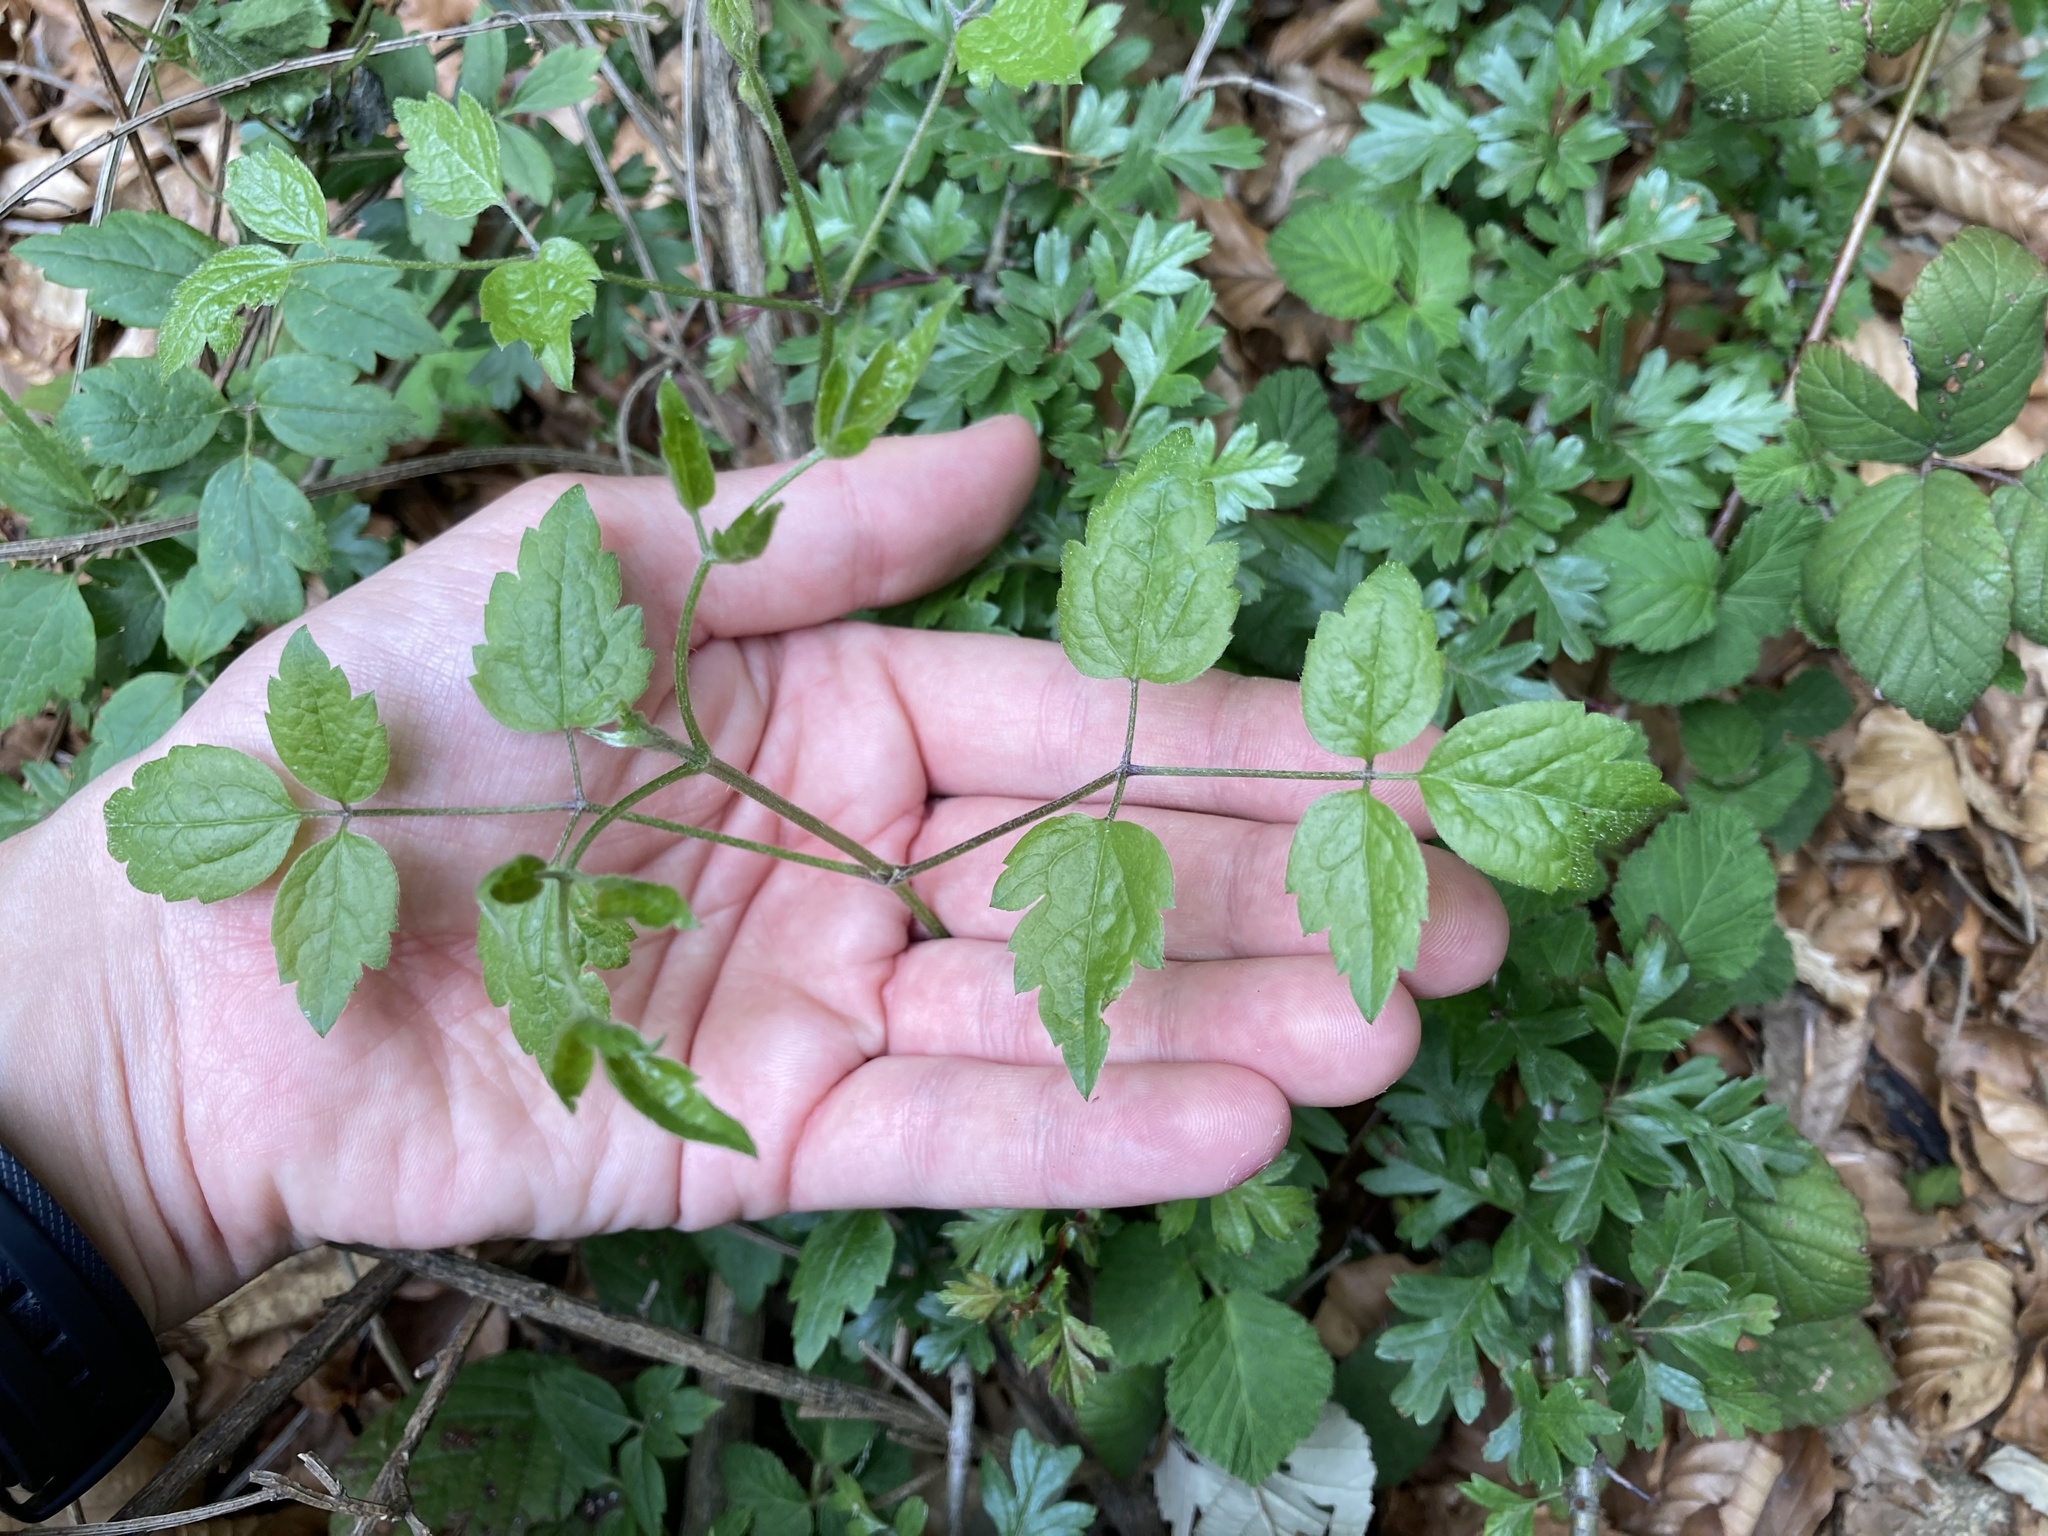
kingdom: Plantae
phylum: Tracheophyta
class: Magnoliopsida
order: Ranunculales
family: Ranunculaceae
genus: Clematis
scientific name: Clematis vitalba
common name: Evergreen clematis
